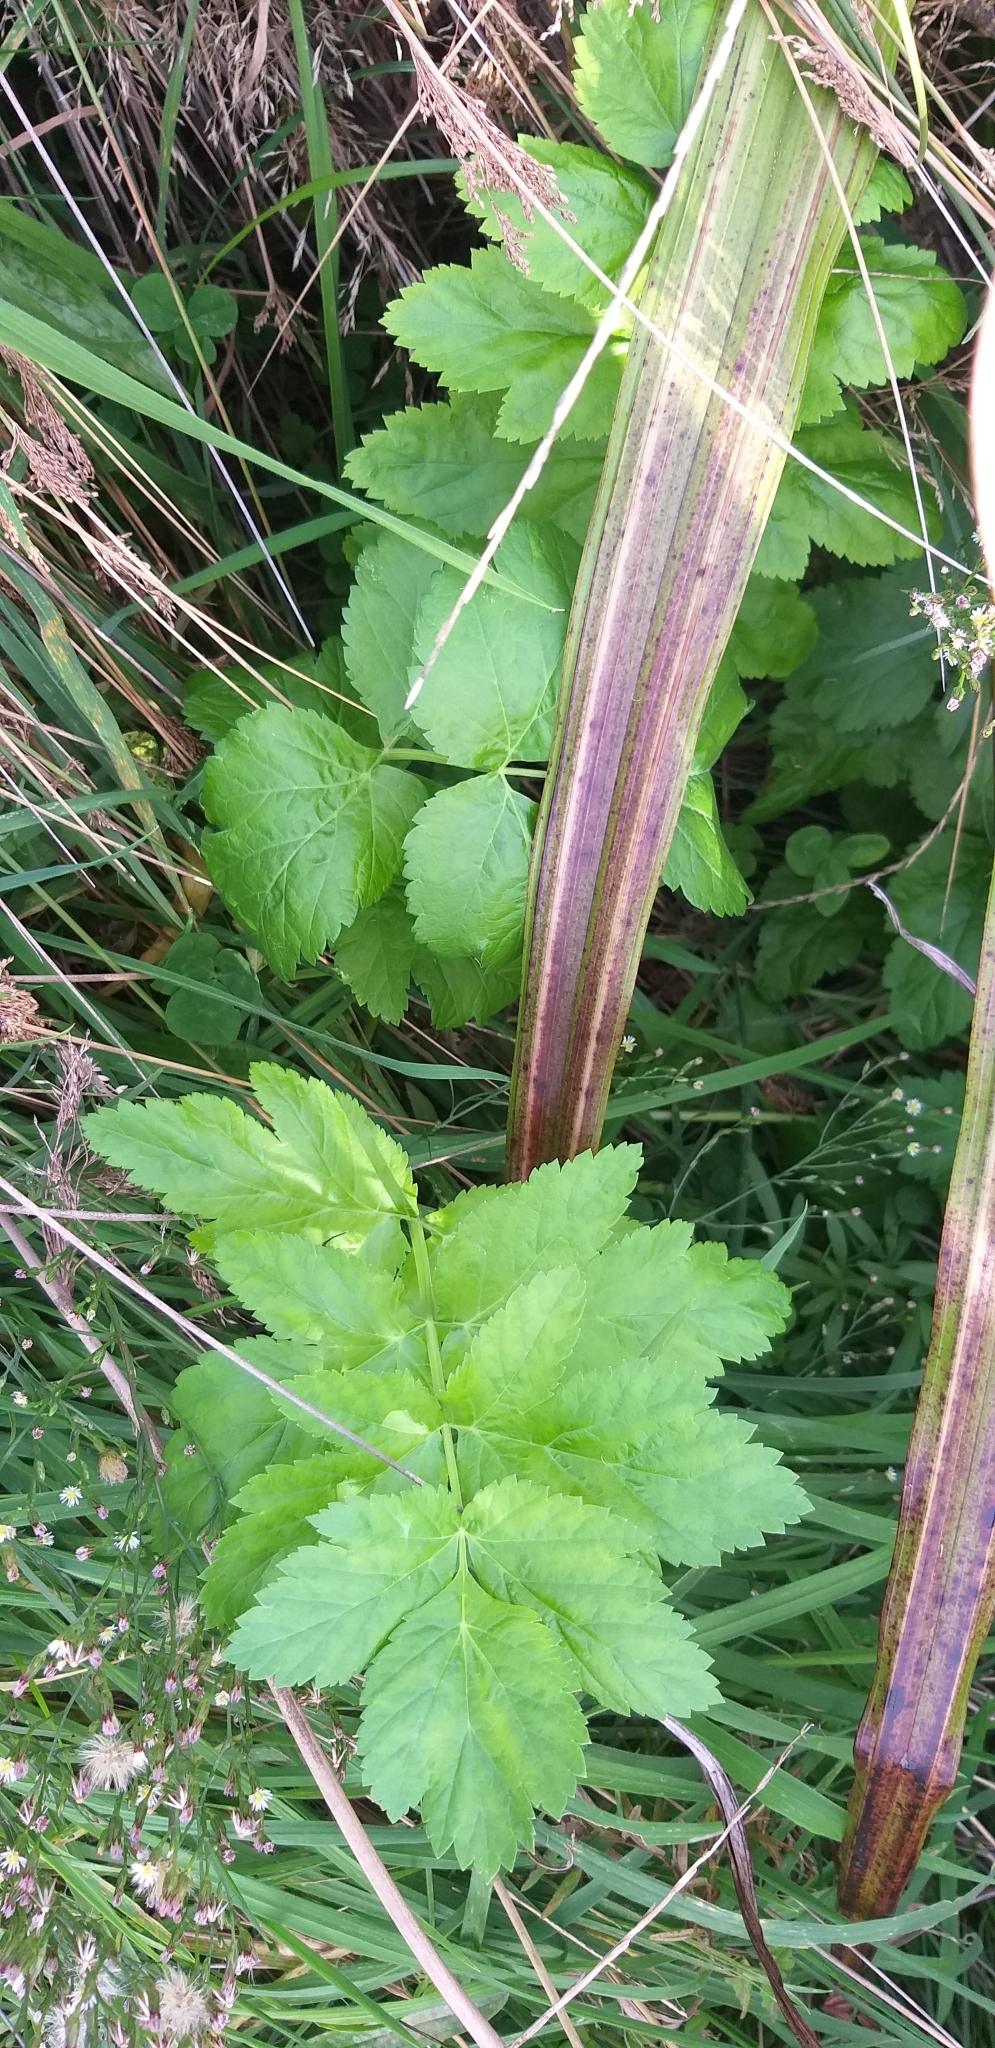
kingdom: Plantae
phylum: Tracheophyta
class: Magnoliopsida
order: Apiales
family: Apiaceae
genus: Pastinaca
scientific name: Pastinaca sativa
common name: Wild parsnip
